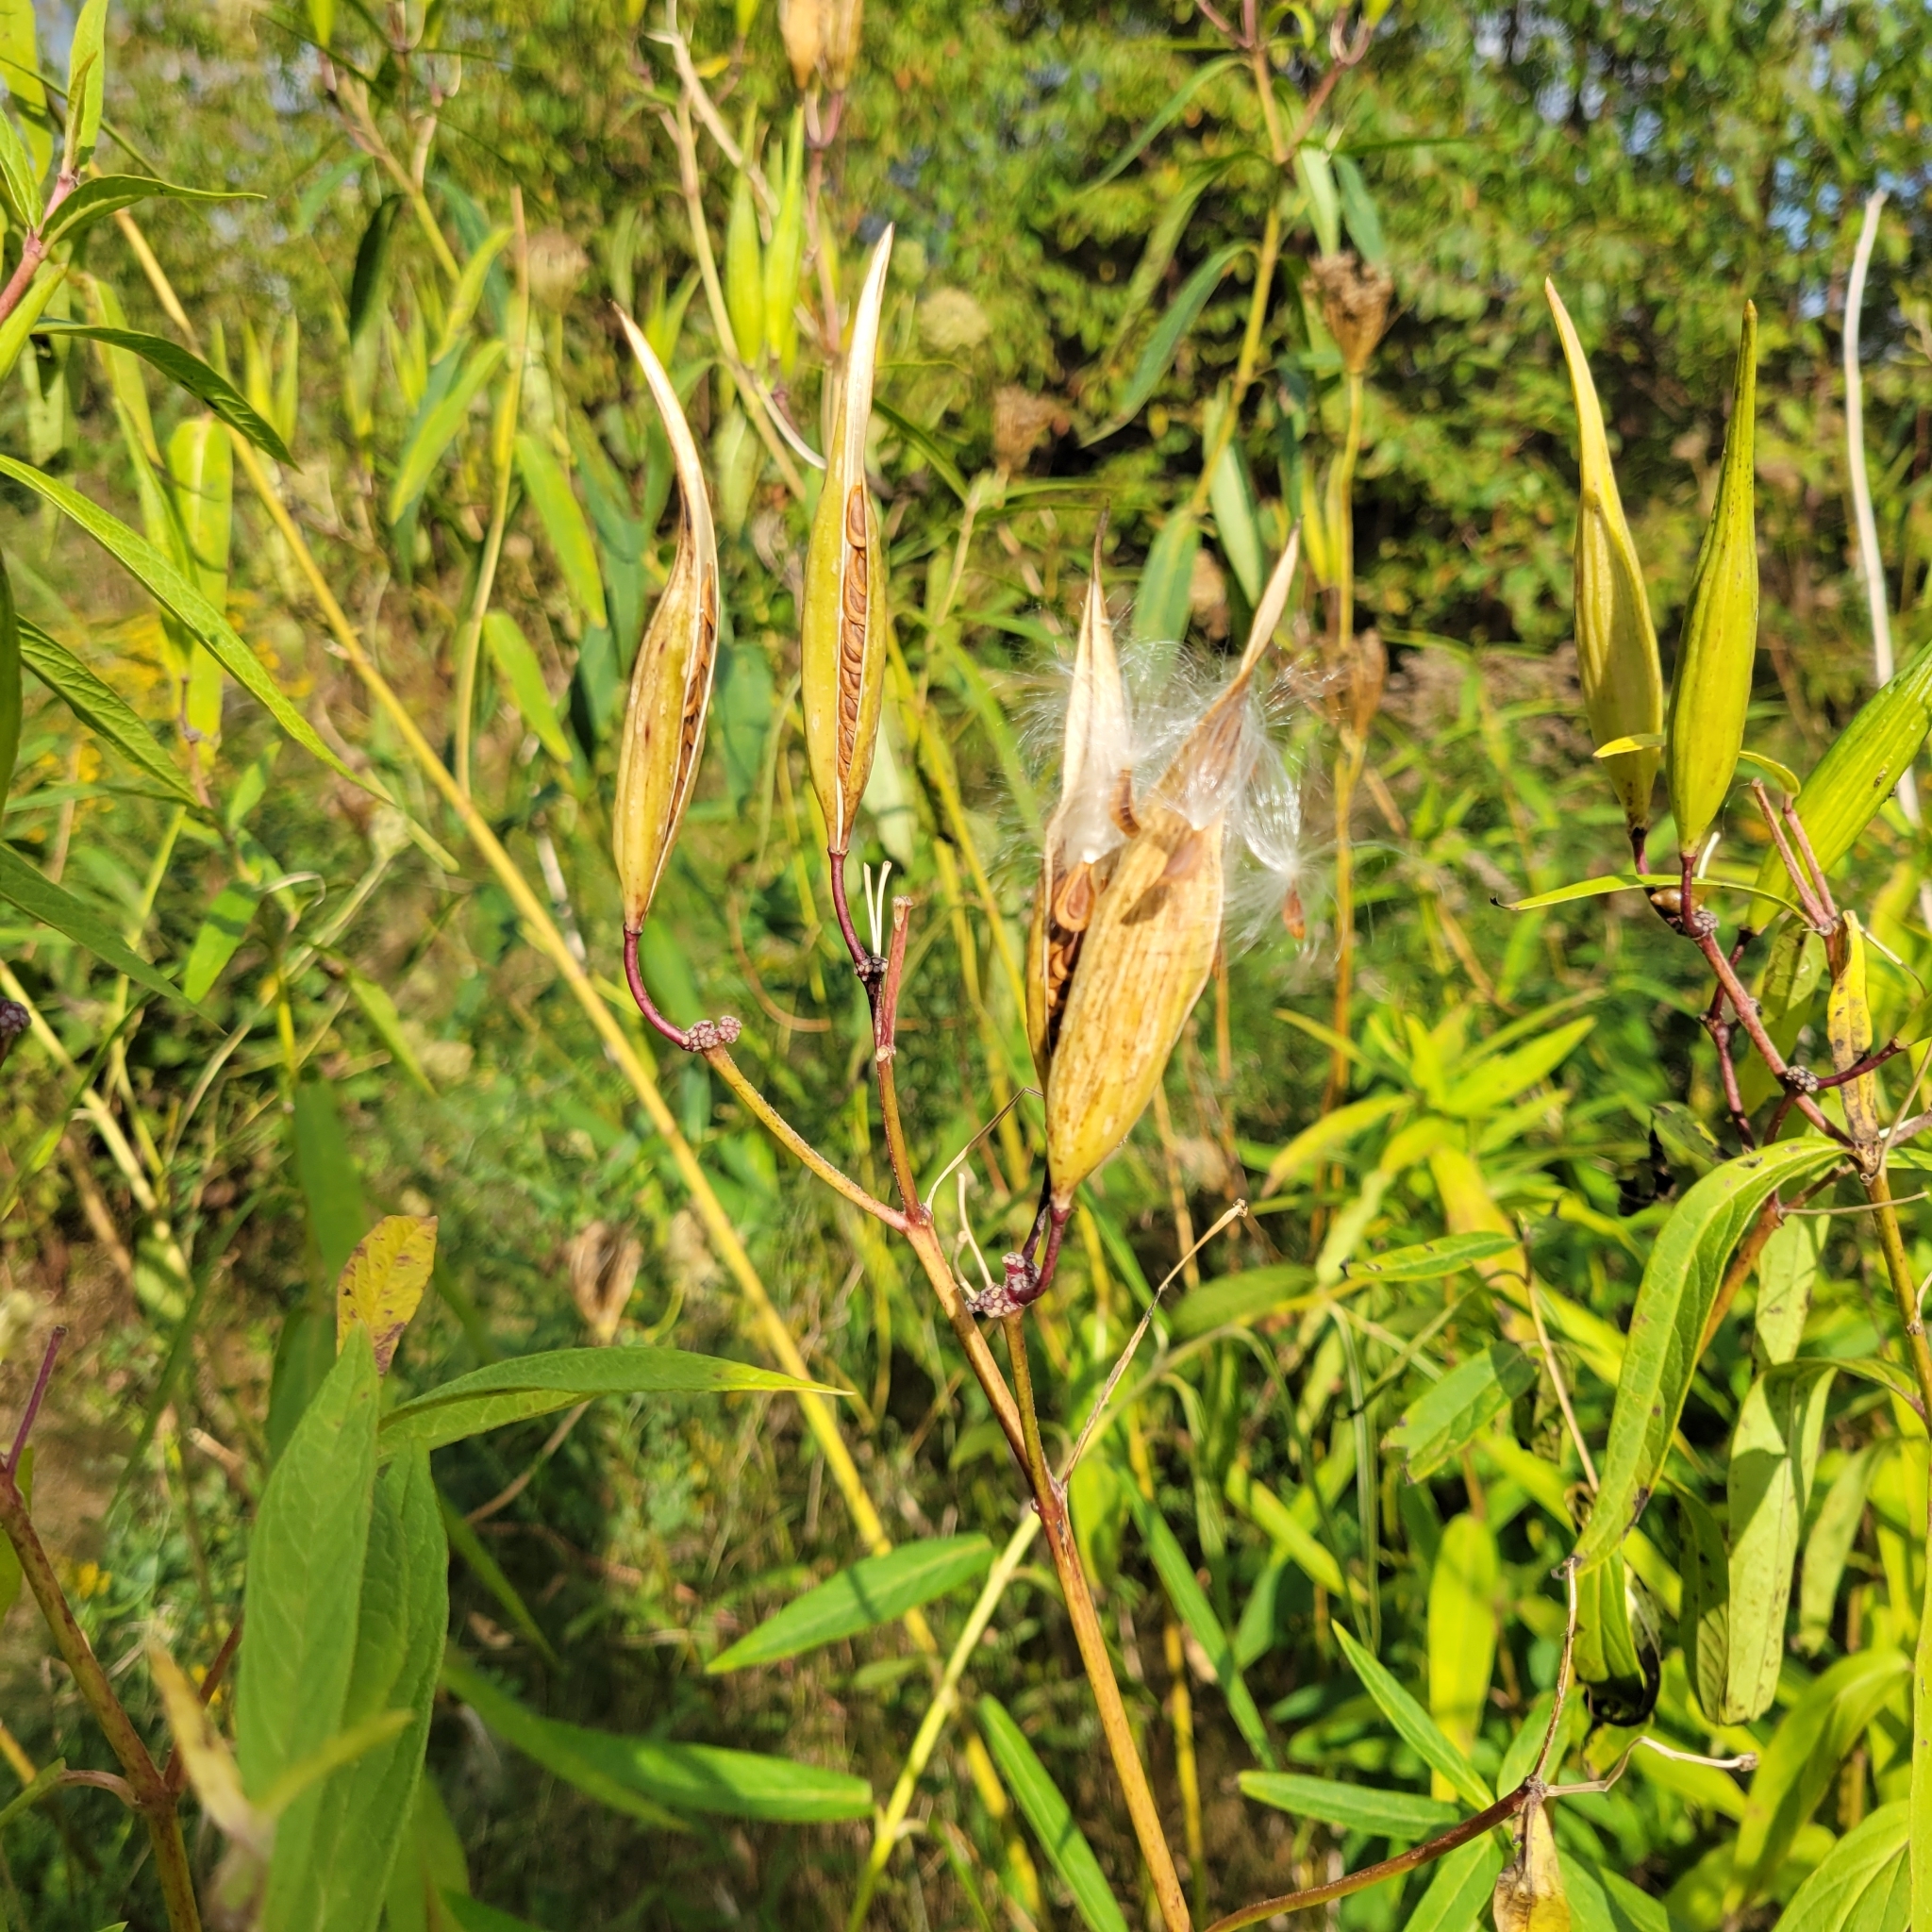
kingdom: Plantae
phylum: Tracheophyta
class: Magnoliopsida
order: Gentianales
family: Apocynaceae
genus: Asclepias
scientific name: Asclepias incarnata
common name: Swamp milkweed
